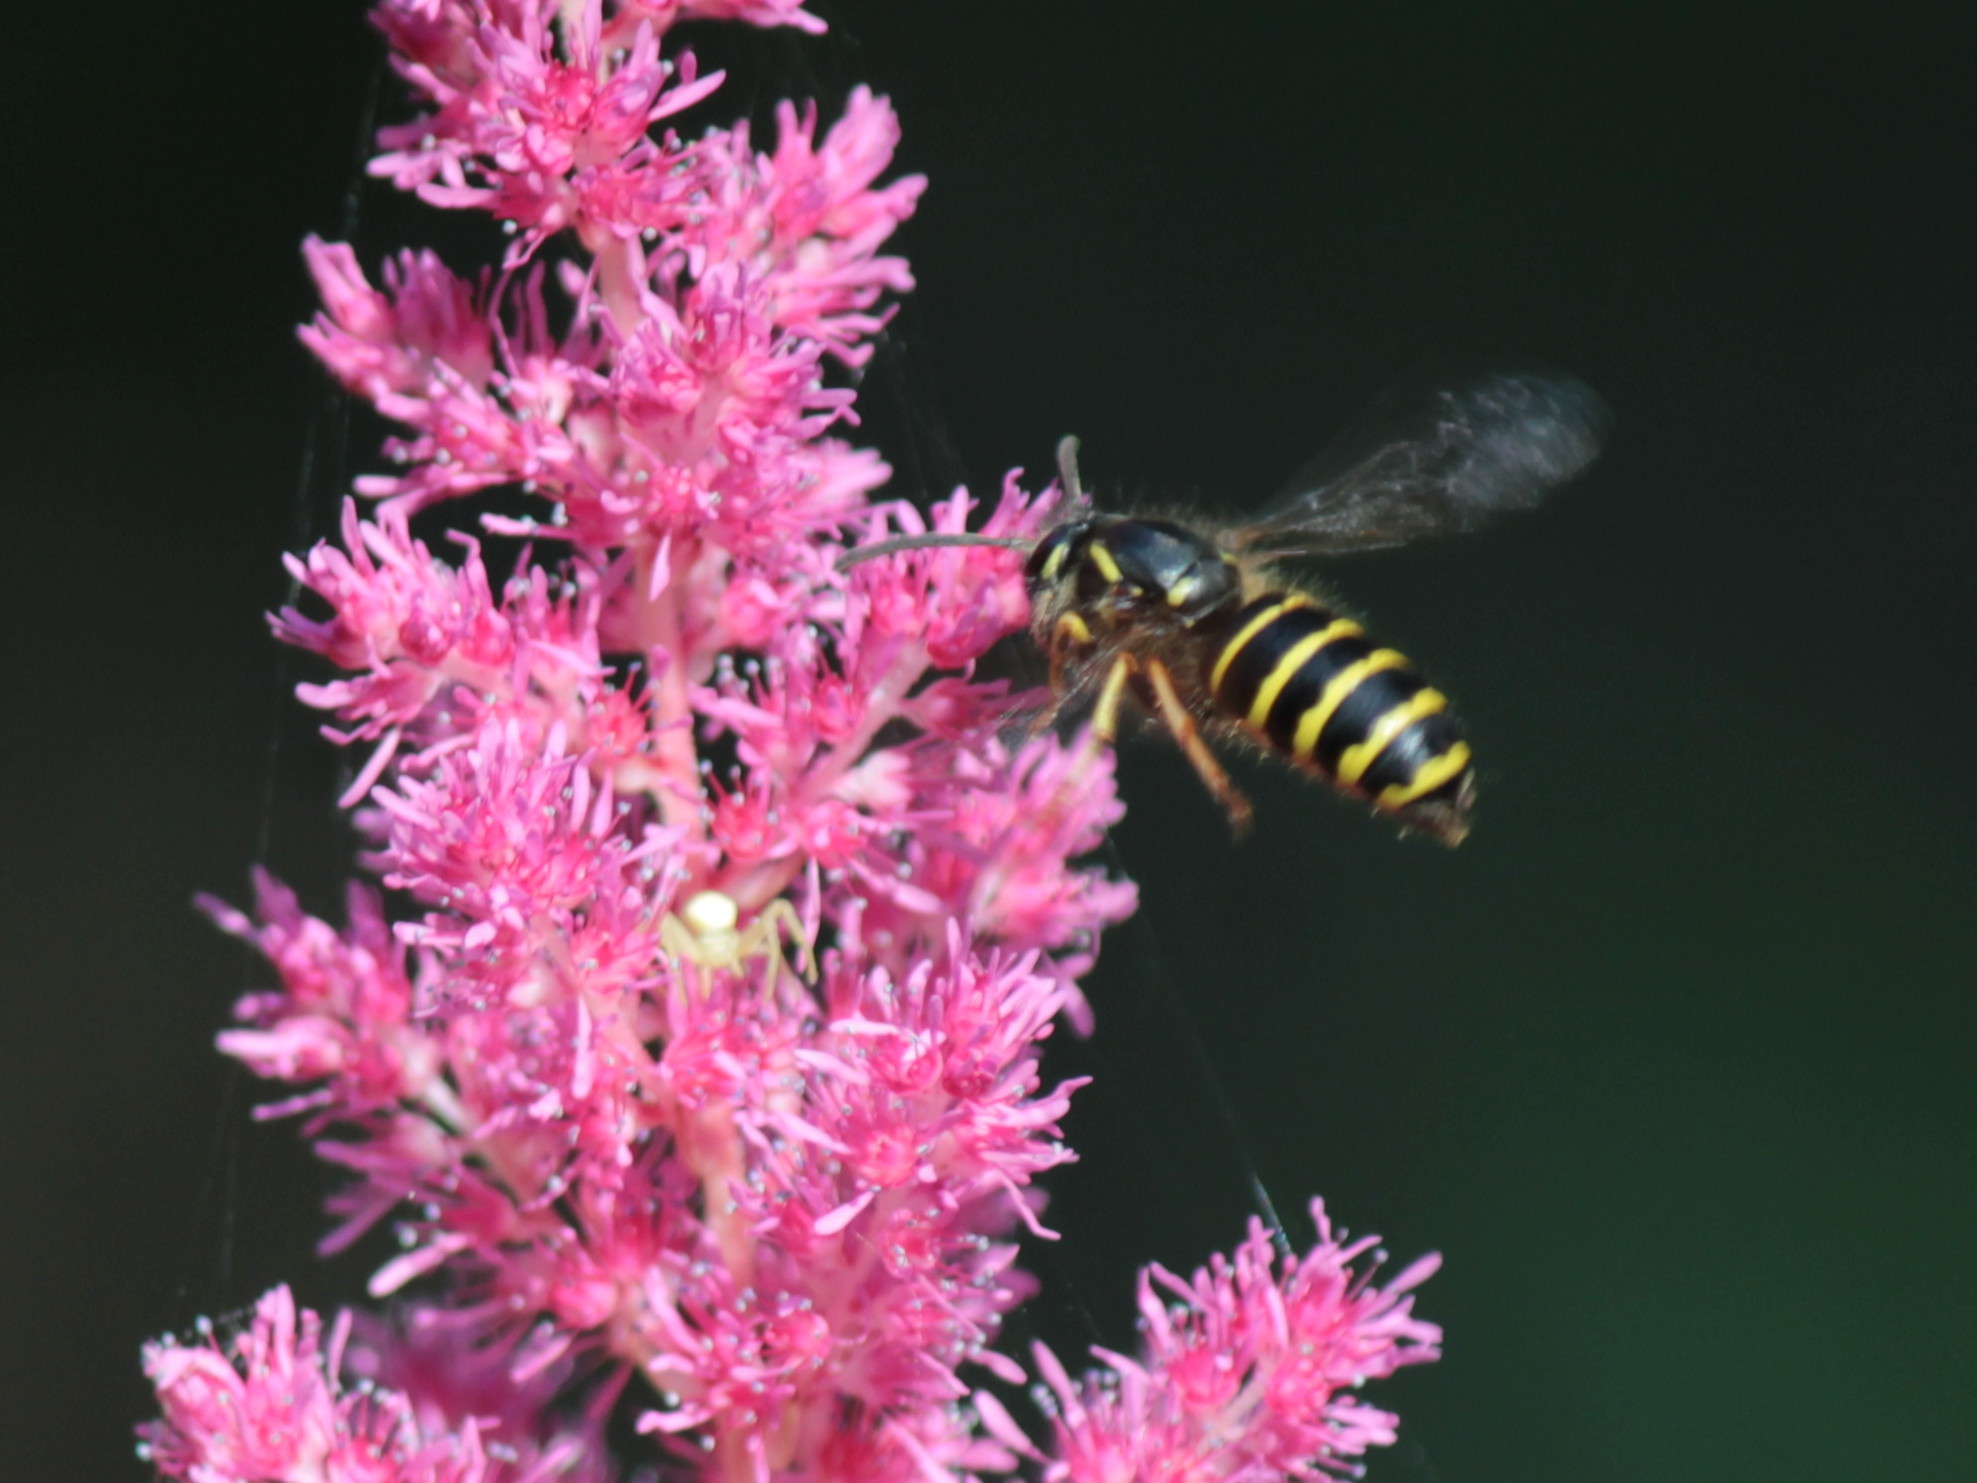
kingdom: Animalia
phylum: Arthropoda
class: Insecta
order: Hymenoptera
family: Vespidae
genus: Dolichovespula
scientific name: Dolichovespula norvegicoides
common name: Northern aerial yellowjacket
